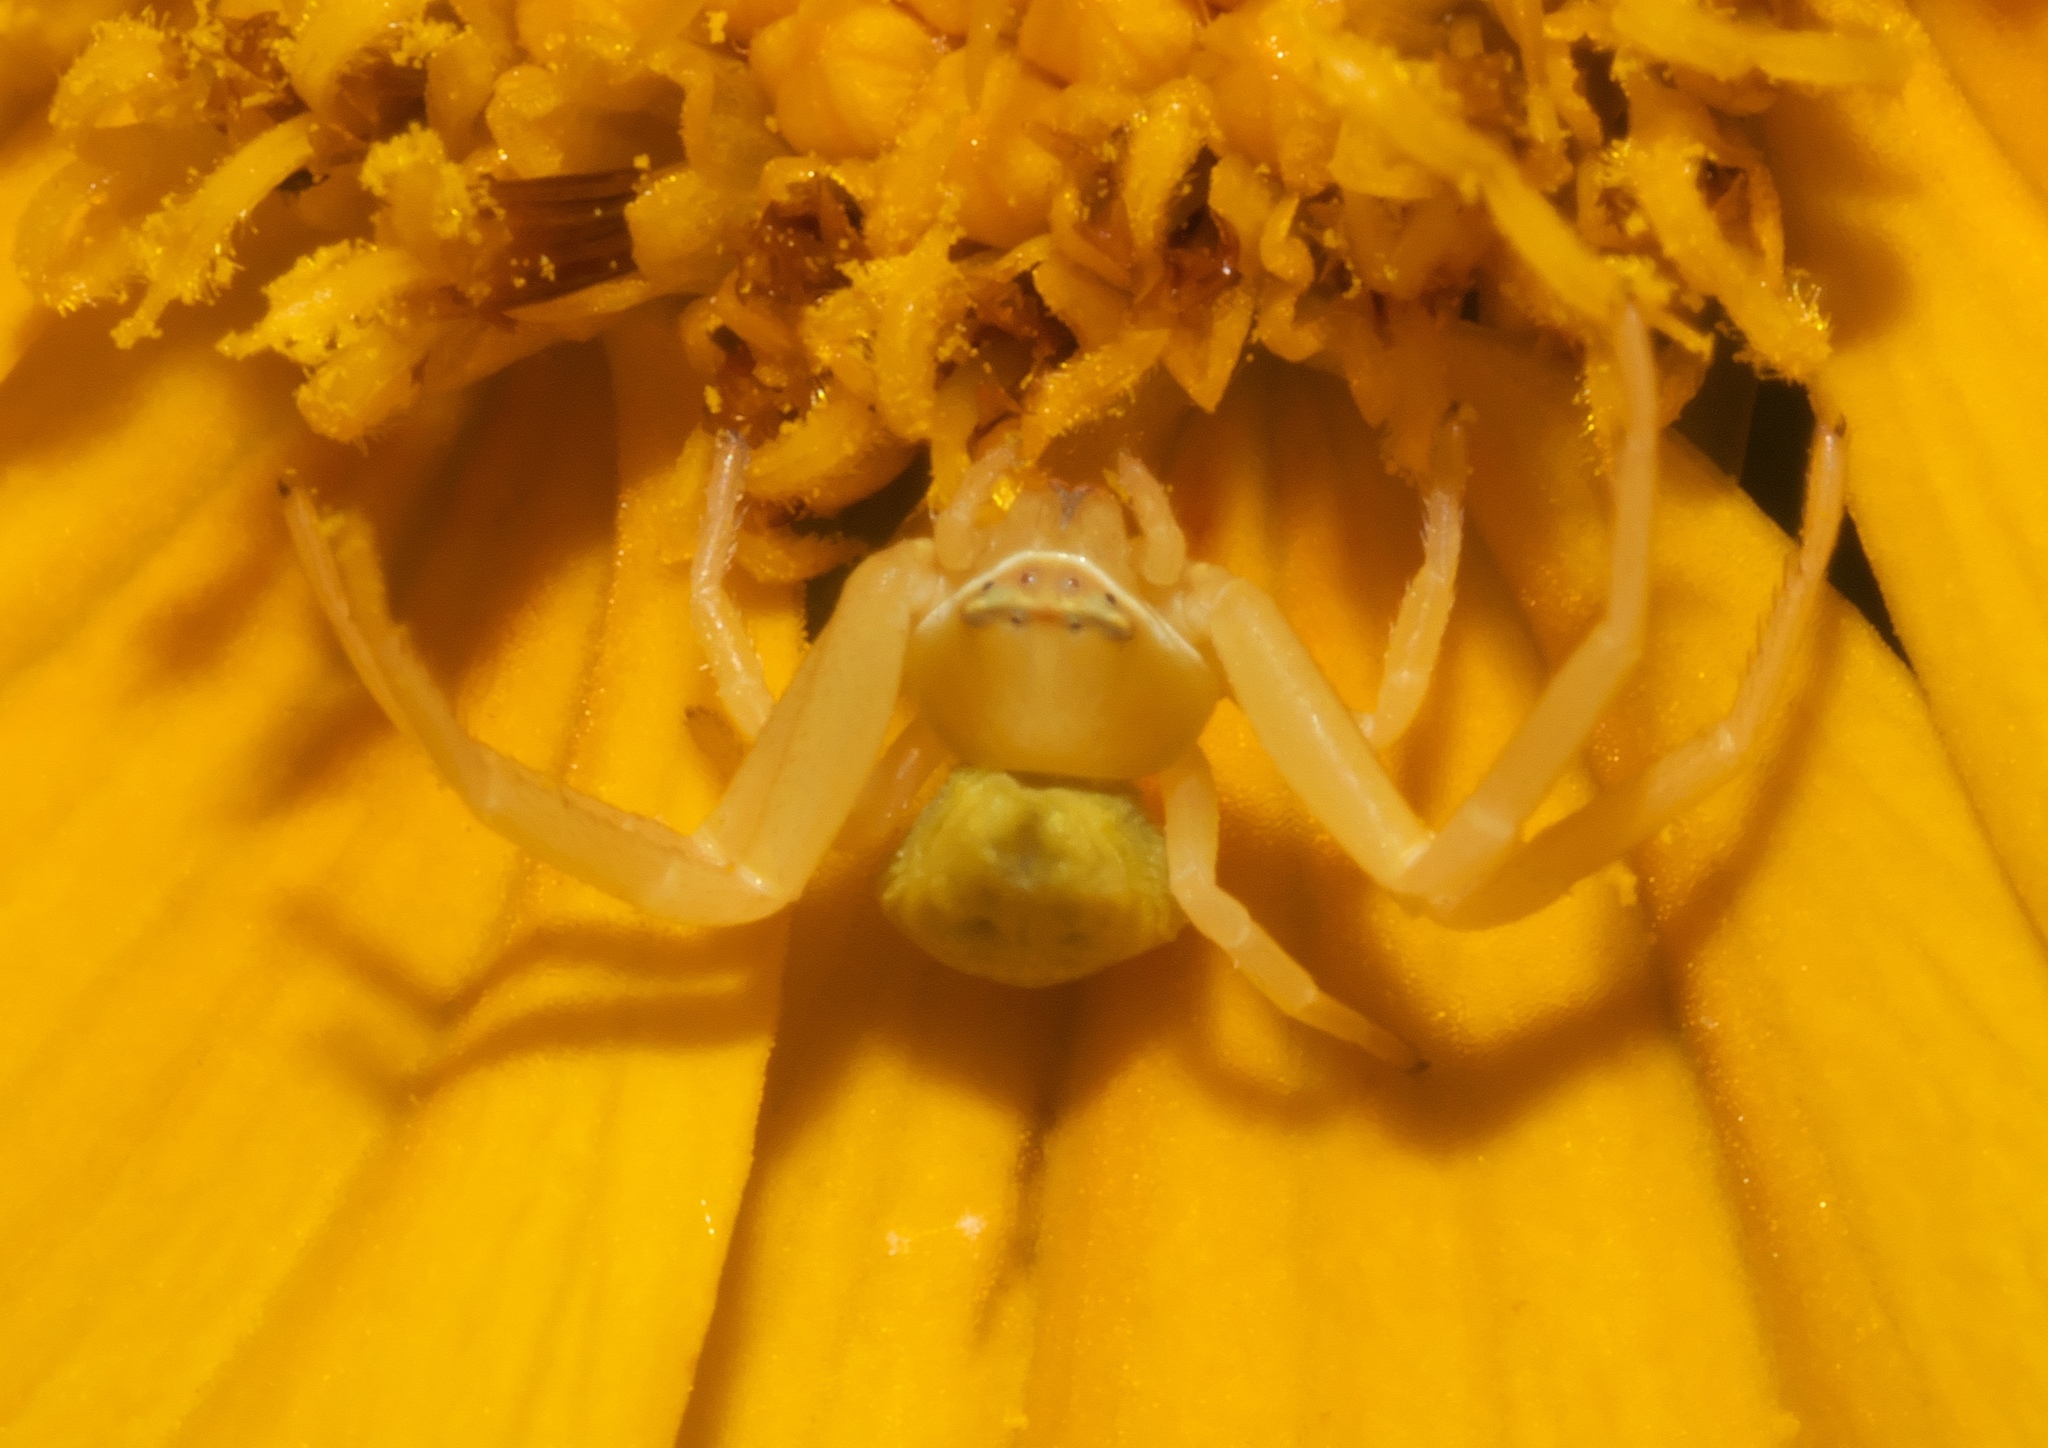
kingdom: Animalia
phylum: Arthropoda
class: Arachnida
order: Araneae
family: Thomisidae
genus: Misumenoides
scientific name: Misumenoides formosipes
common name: White-banded crab spider
